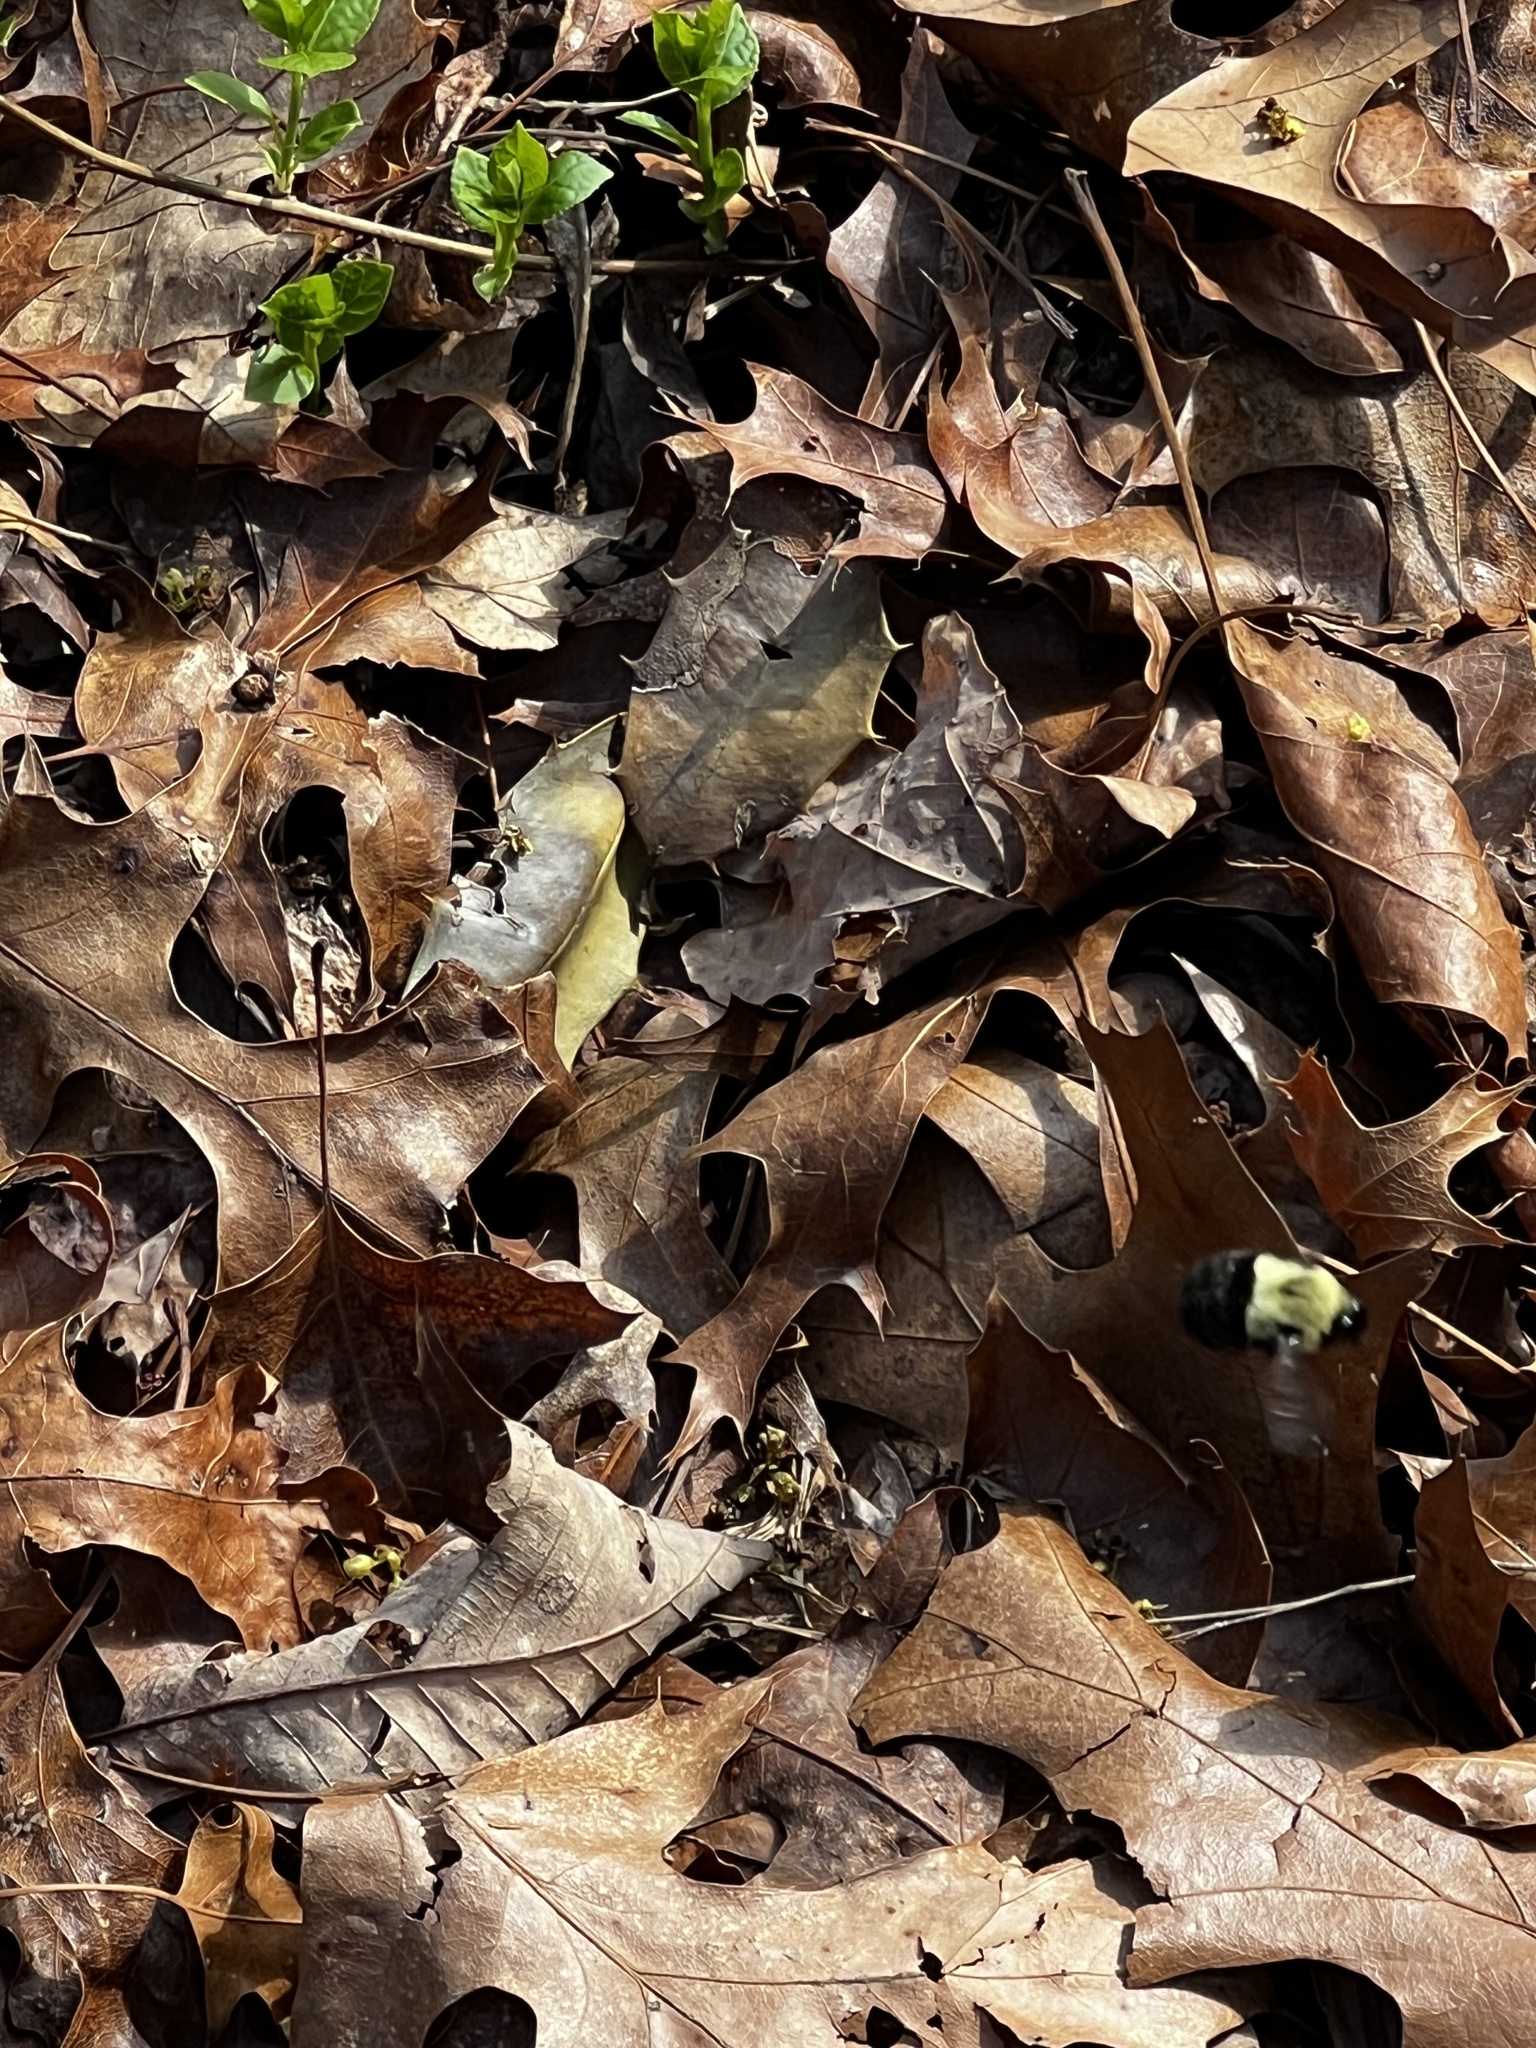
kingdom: Animalia
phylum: Arthropoda
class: Insecta
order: Hymenoptera
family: Apidae
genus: Bombus
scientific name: Bombus impatiens
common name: Common eastern bumble bee
